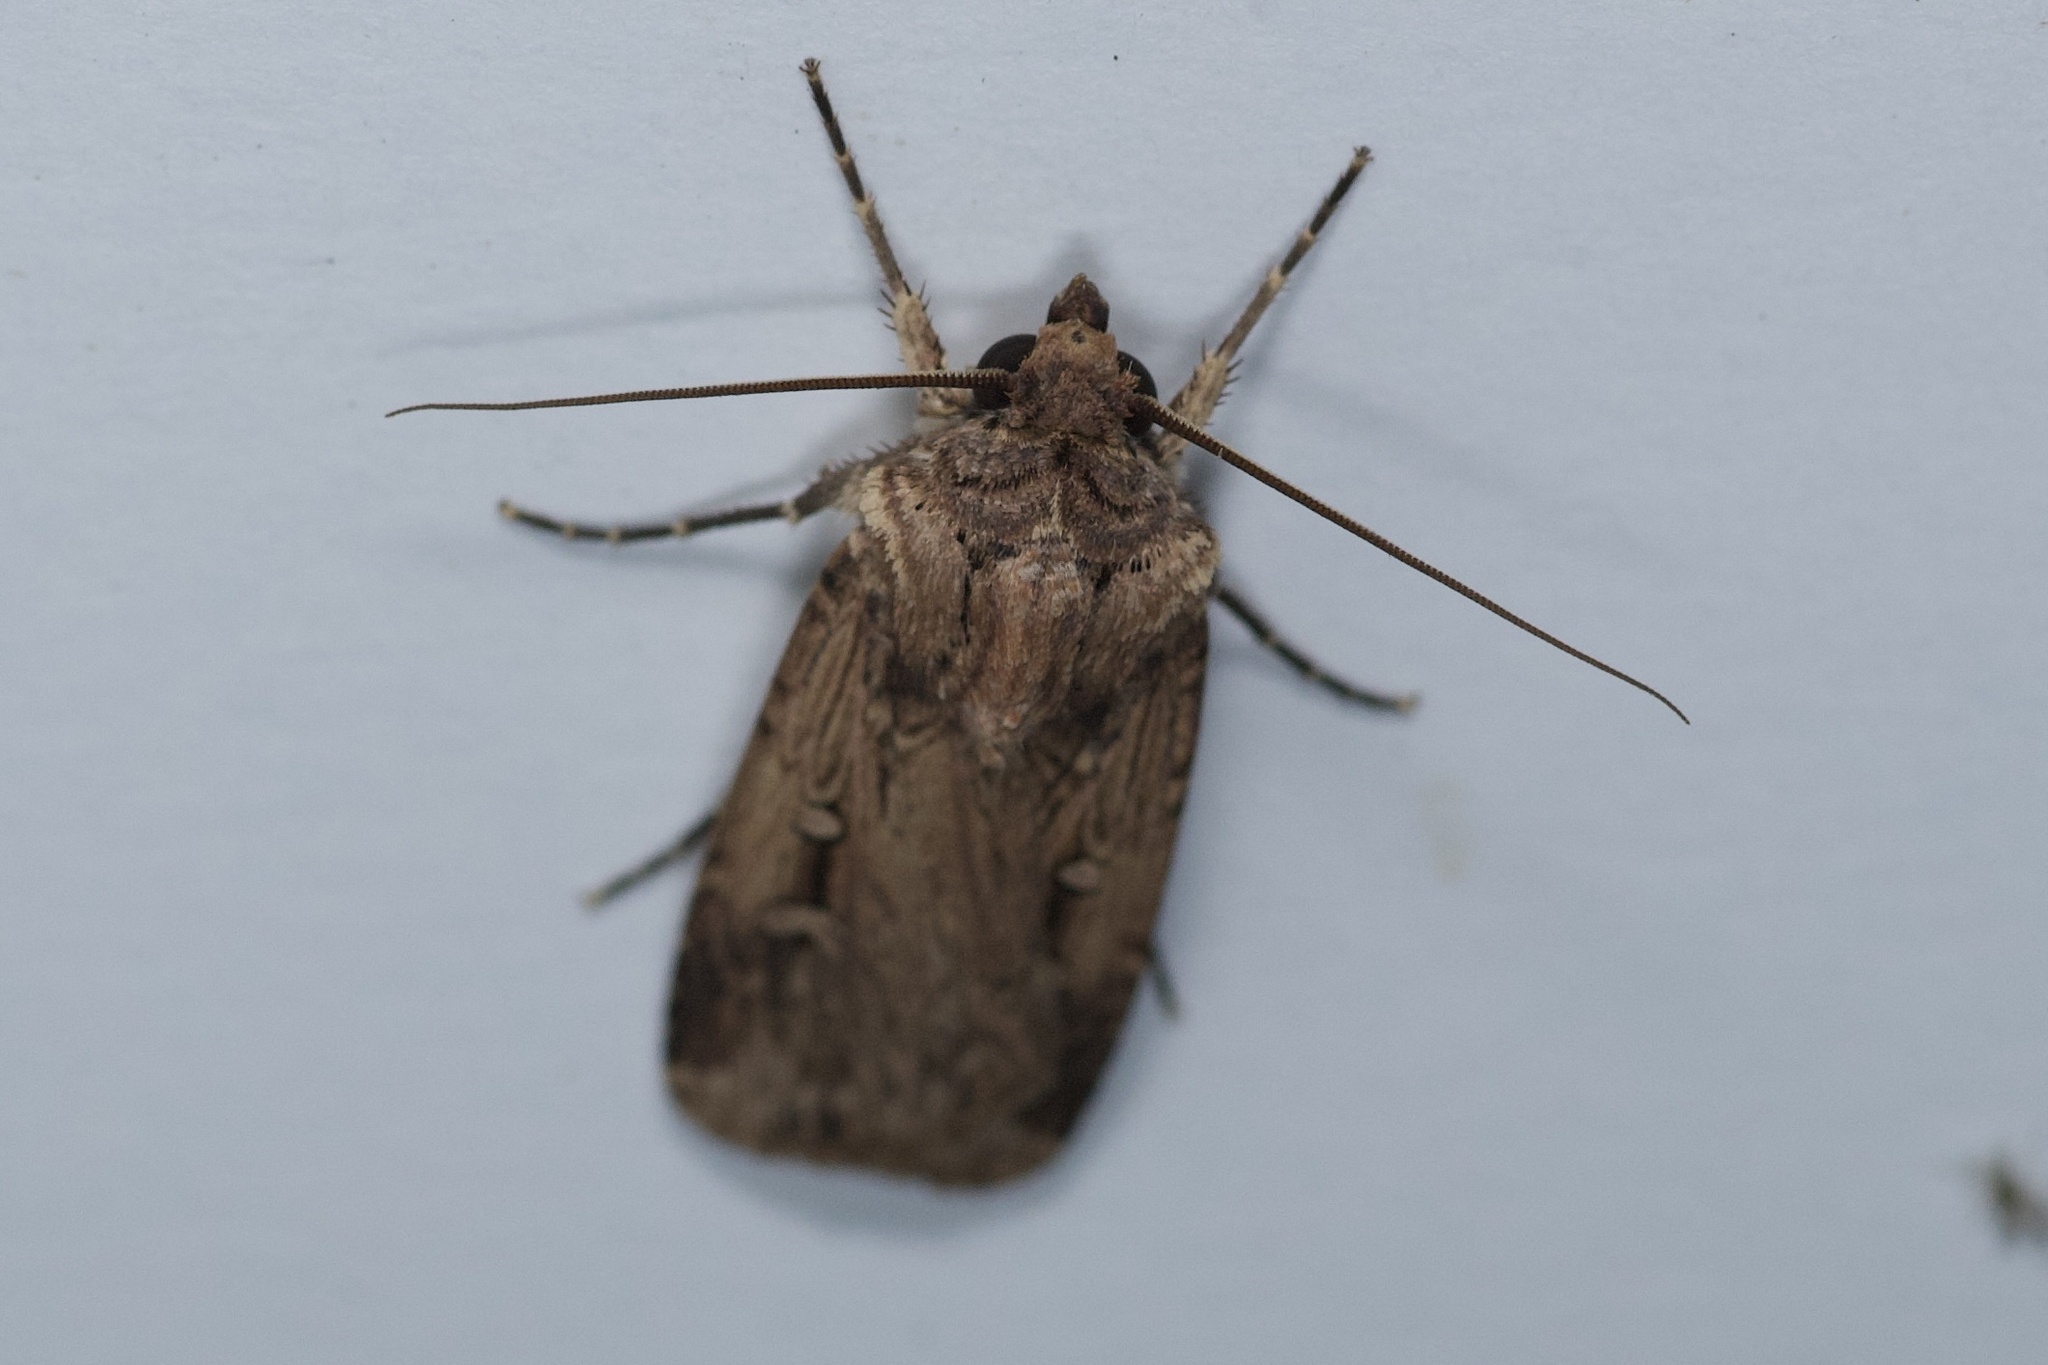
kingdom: Animalia
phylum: Arthropoda
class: Insecta
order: Lepidoptera
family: Noctuidae
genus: Feltia
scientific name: Feltia subterranea
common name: Granulate cutworm
